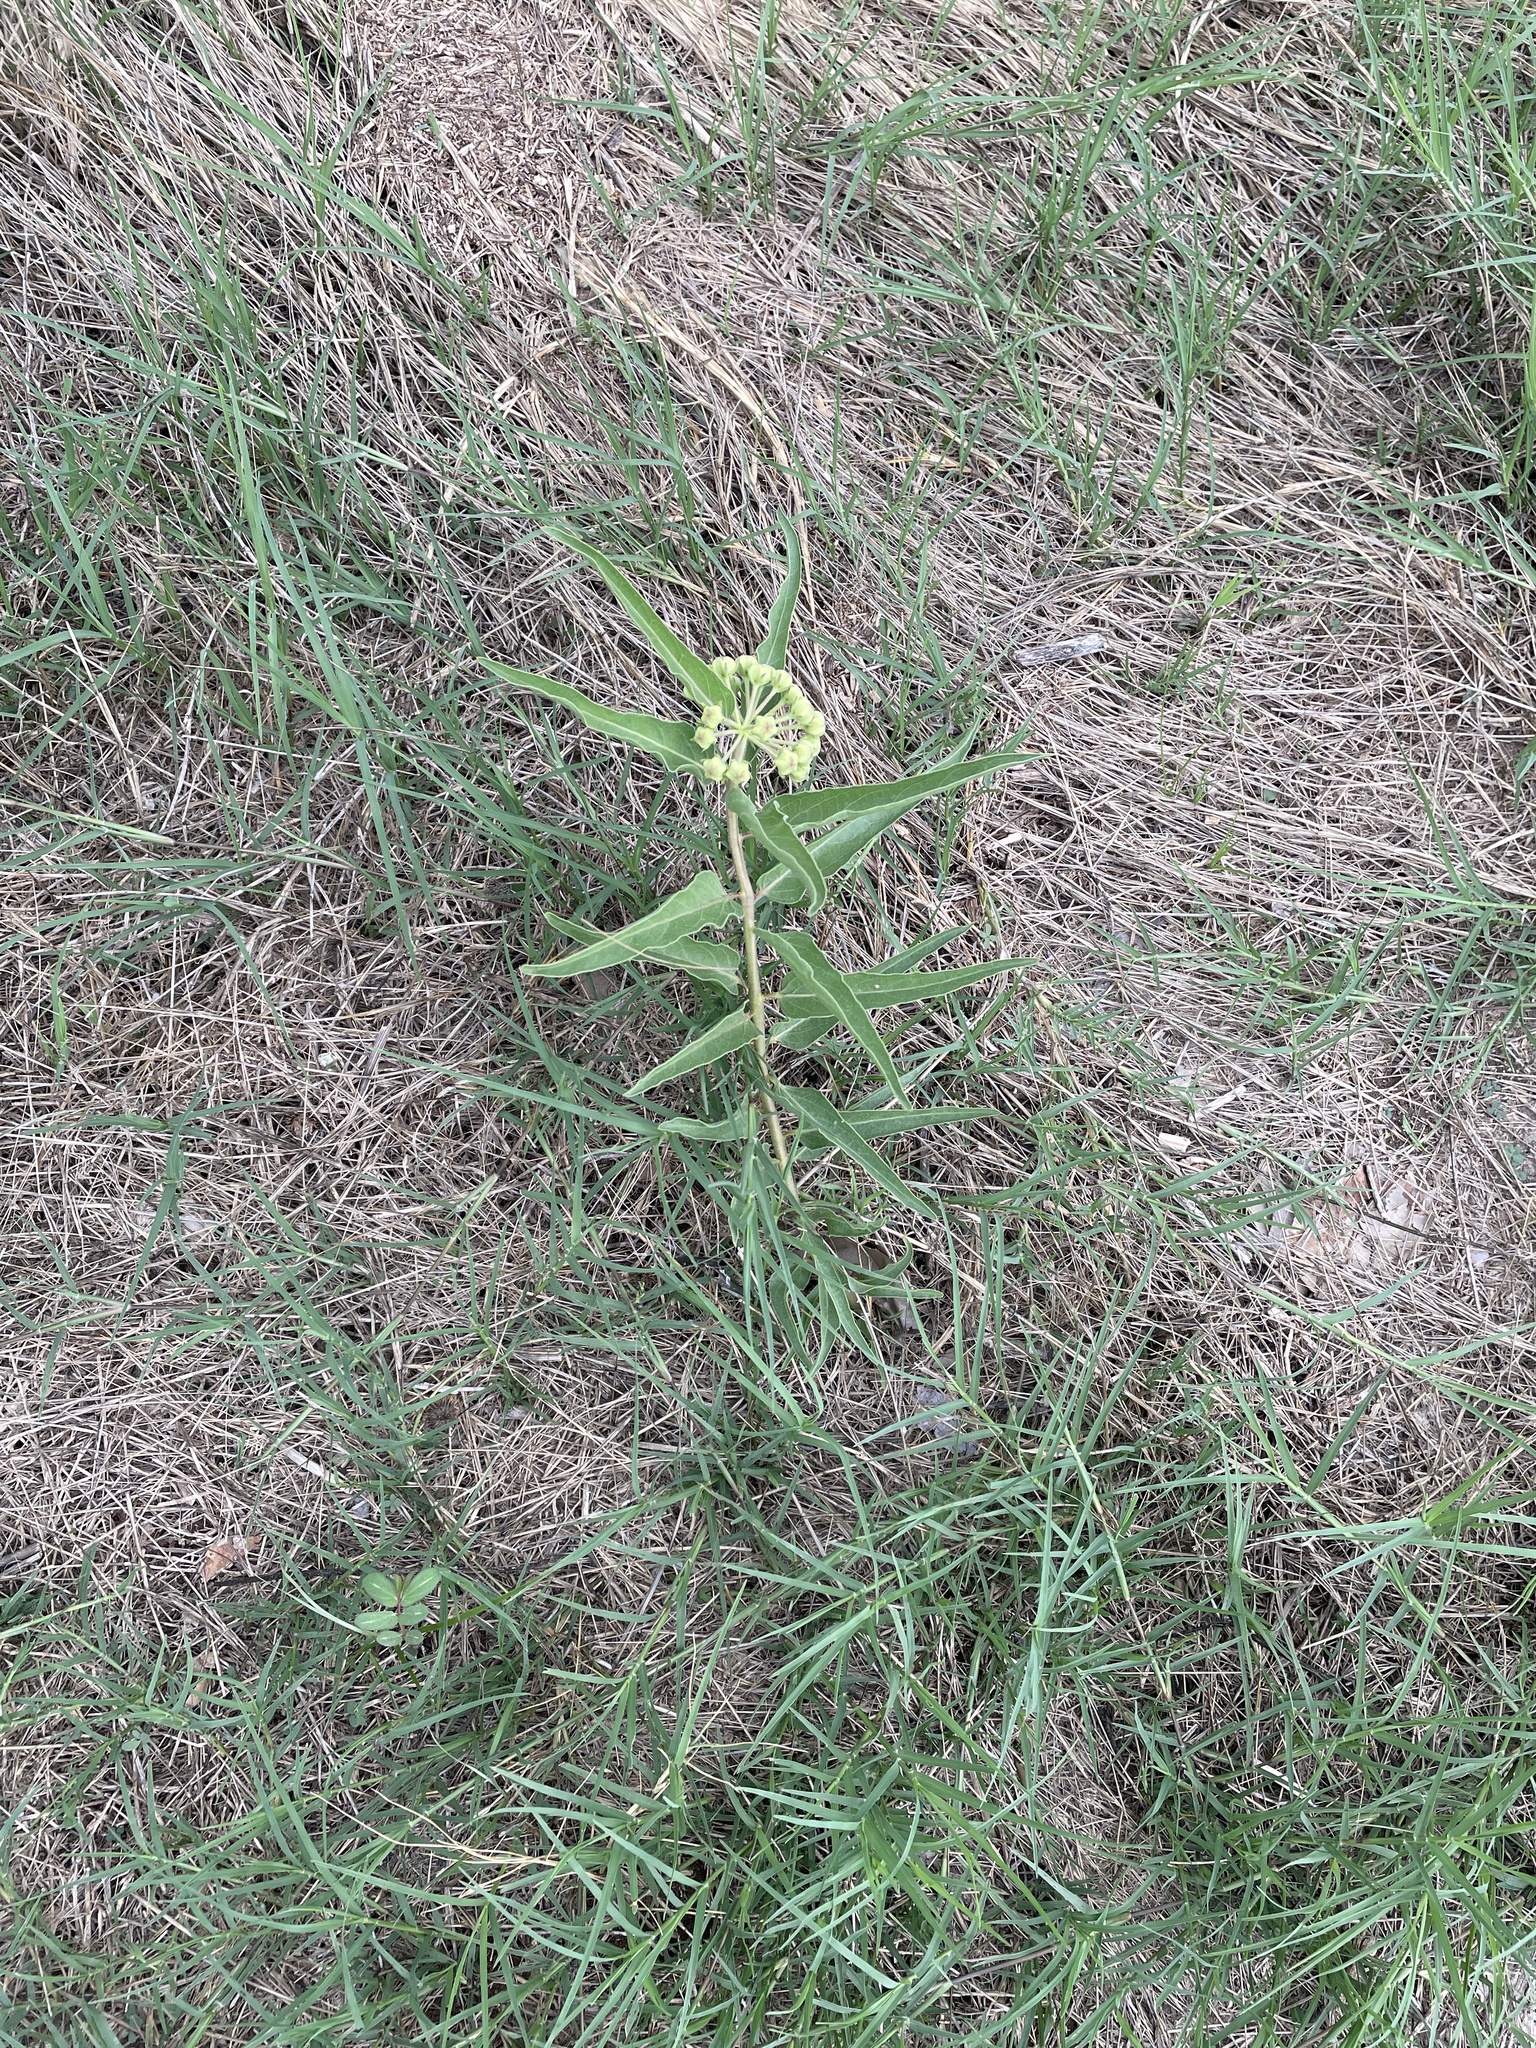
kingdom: Plantae
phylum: Tracheophyta
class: Magnoliopsida
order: Gentianales
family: Apocynaceae
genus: Asclepias
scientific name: Asclepias asperula
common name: Antelope horns
